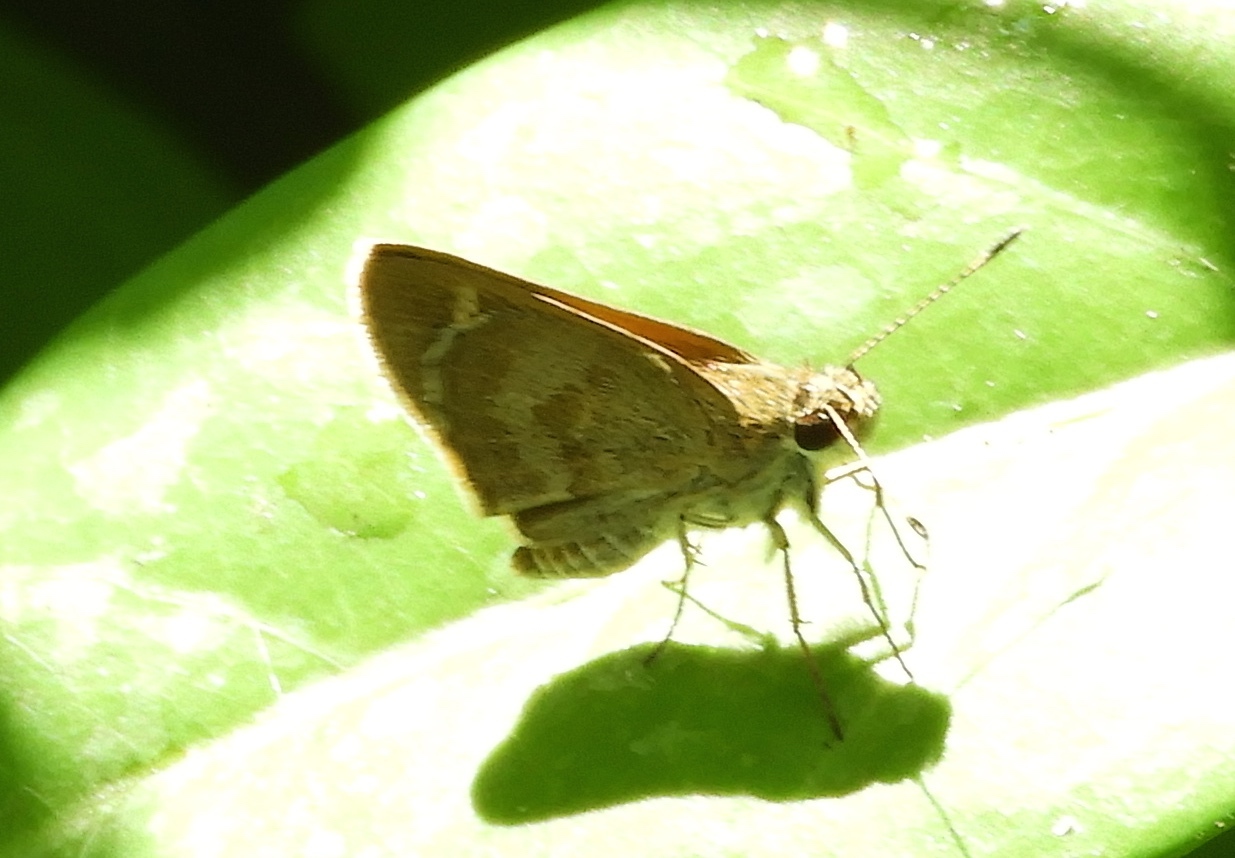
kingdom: Animalia
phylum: Arthropoda
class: Insecta
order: Lepidoptera
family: Hesperiidae
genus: Callimormus
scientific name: Callimormus saturnus
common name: Saturnus skipper
